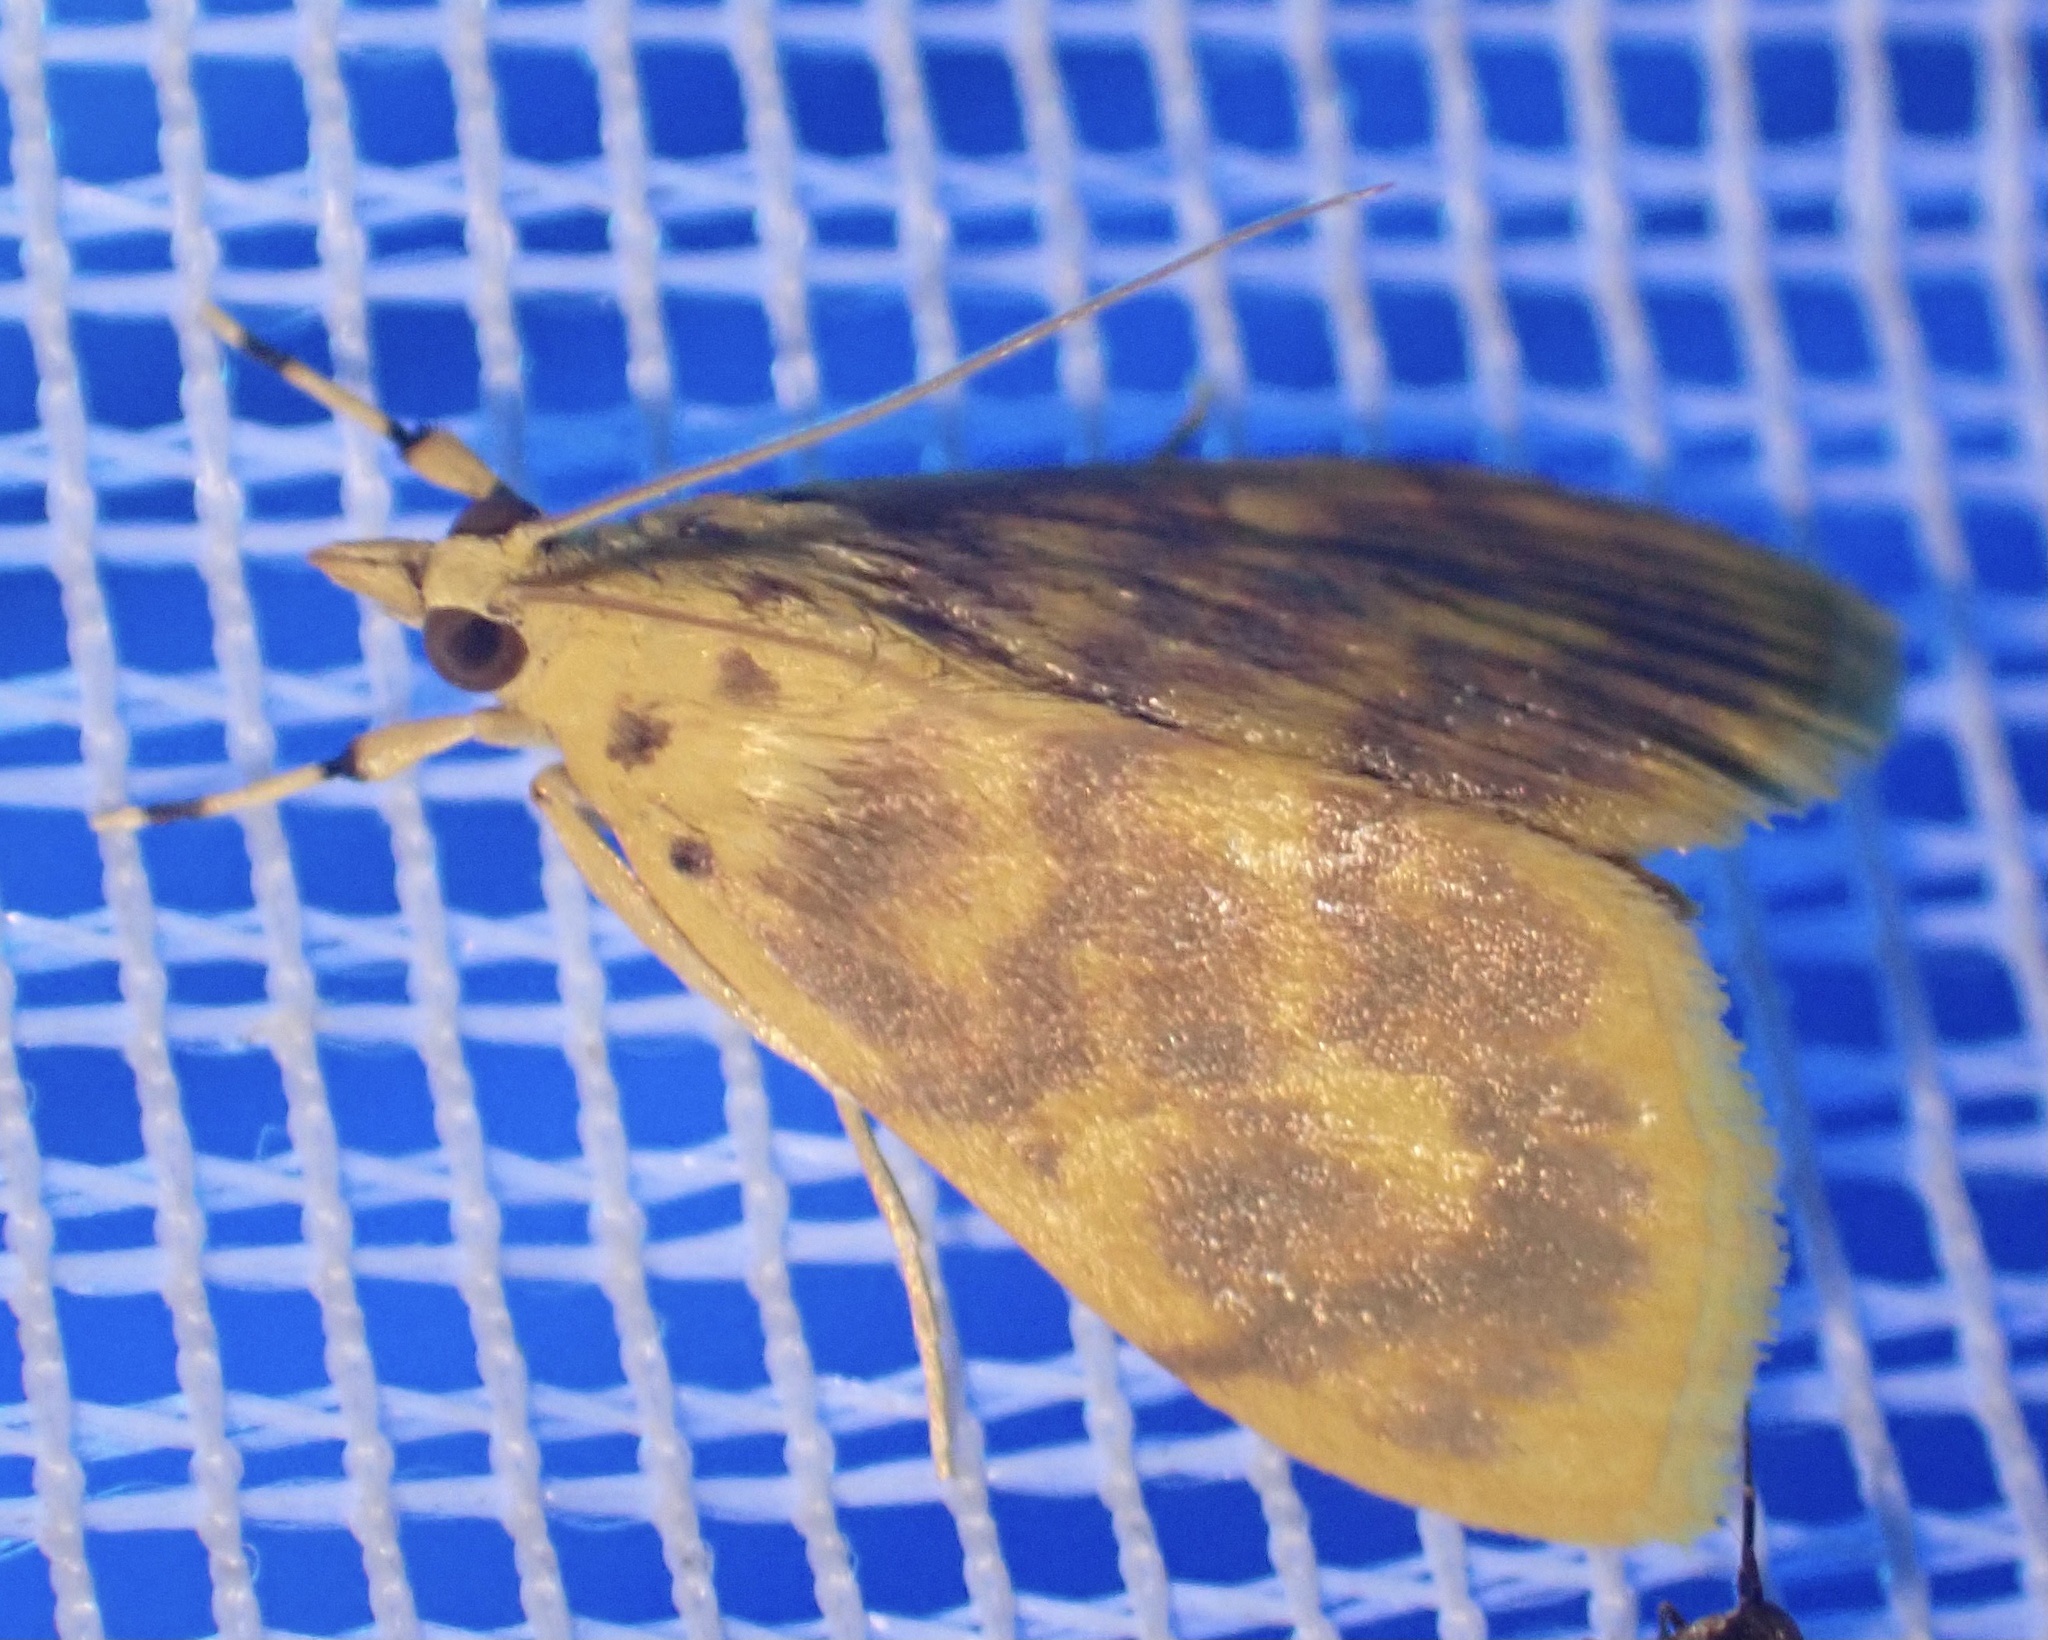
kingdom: Animalia
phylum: Arthropoda
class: Insecta
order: Lepidoptera
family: Crambidae
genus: Epipagis
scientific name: Epipagis olesialis
